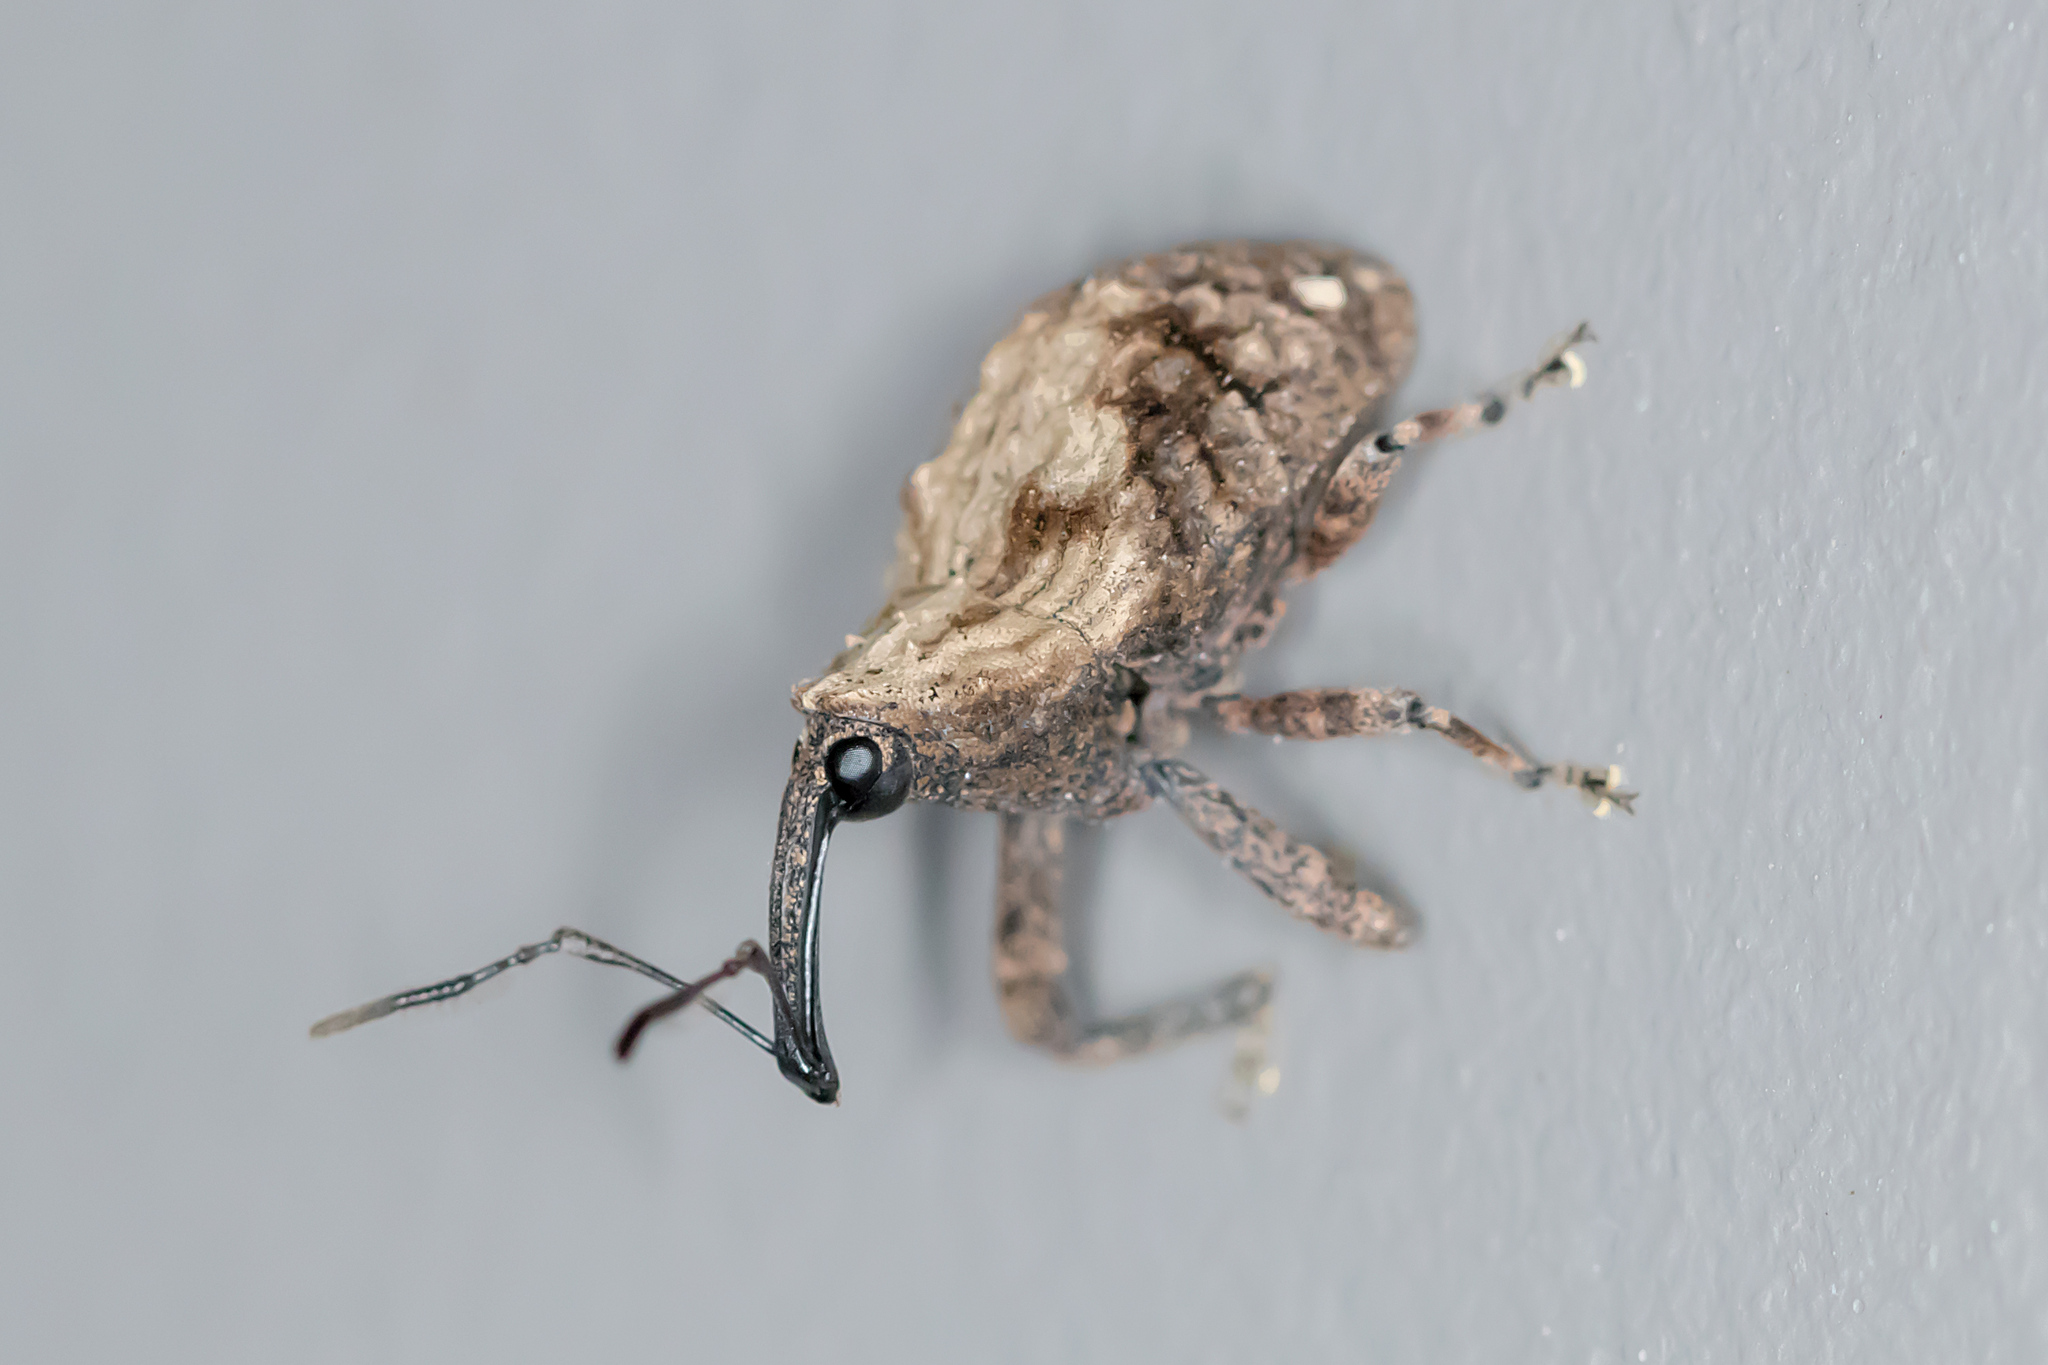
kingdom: Animalia
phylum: Arthropoda
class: Insecta
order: Coleoptera
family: Curculionidae
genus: Blepiarda
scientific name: Blepiarda undulata
